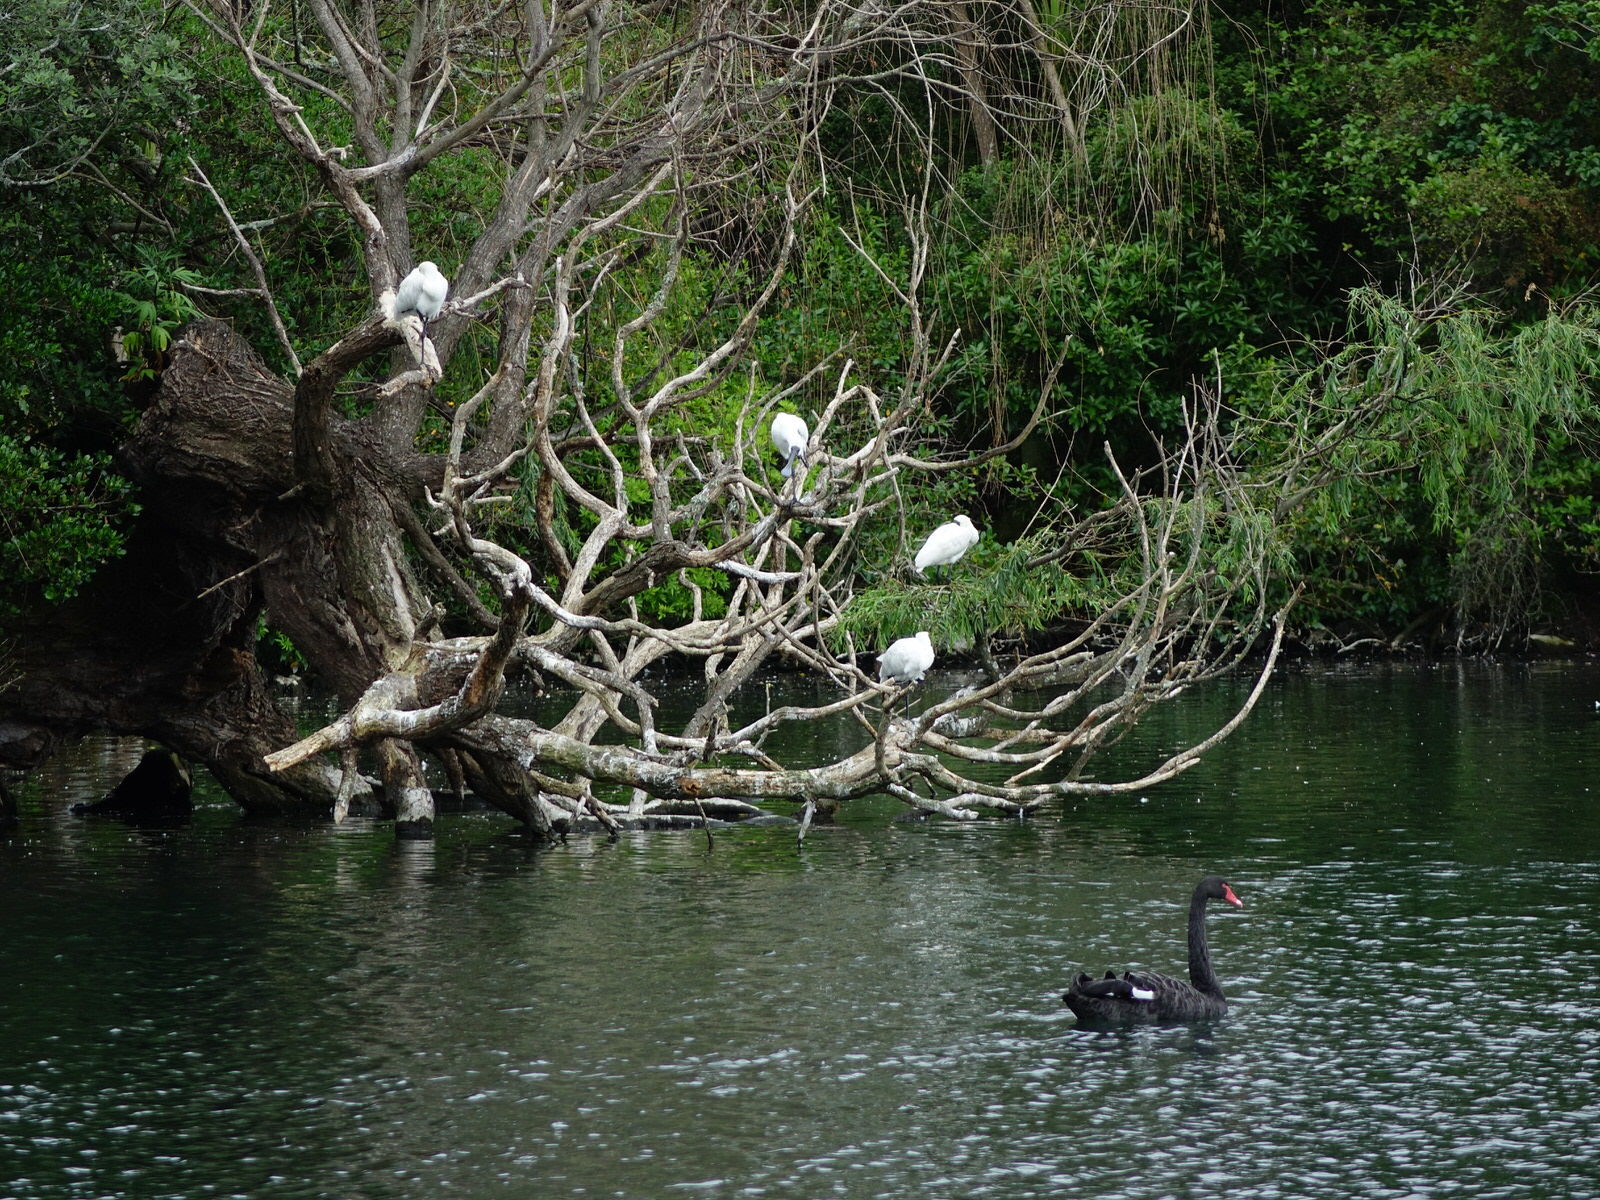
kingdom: Animalia
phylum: Chordata
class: Aves
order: Pelecaniformes
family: Threskiornithidae
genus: Platalea
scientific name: Platalea regia
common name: Royal spoonbill
